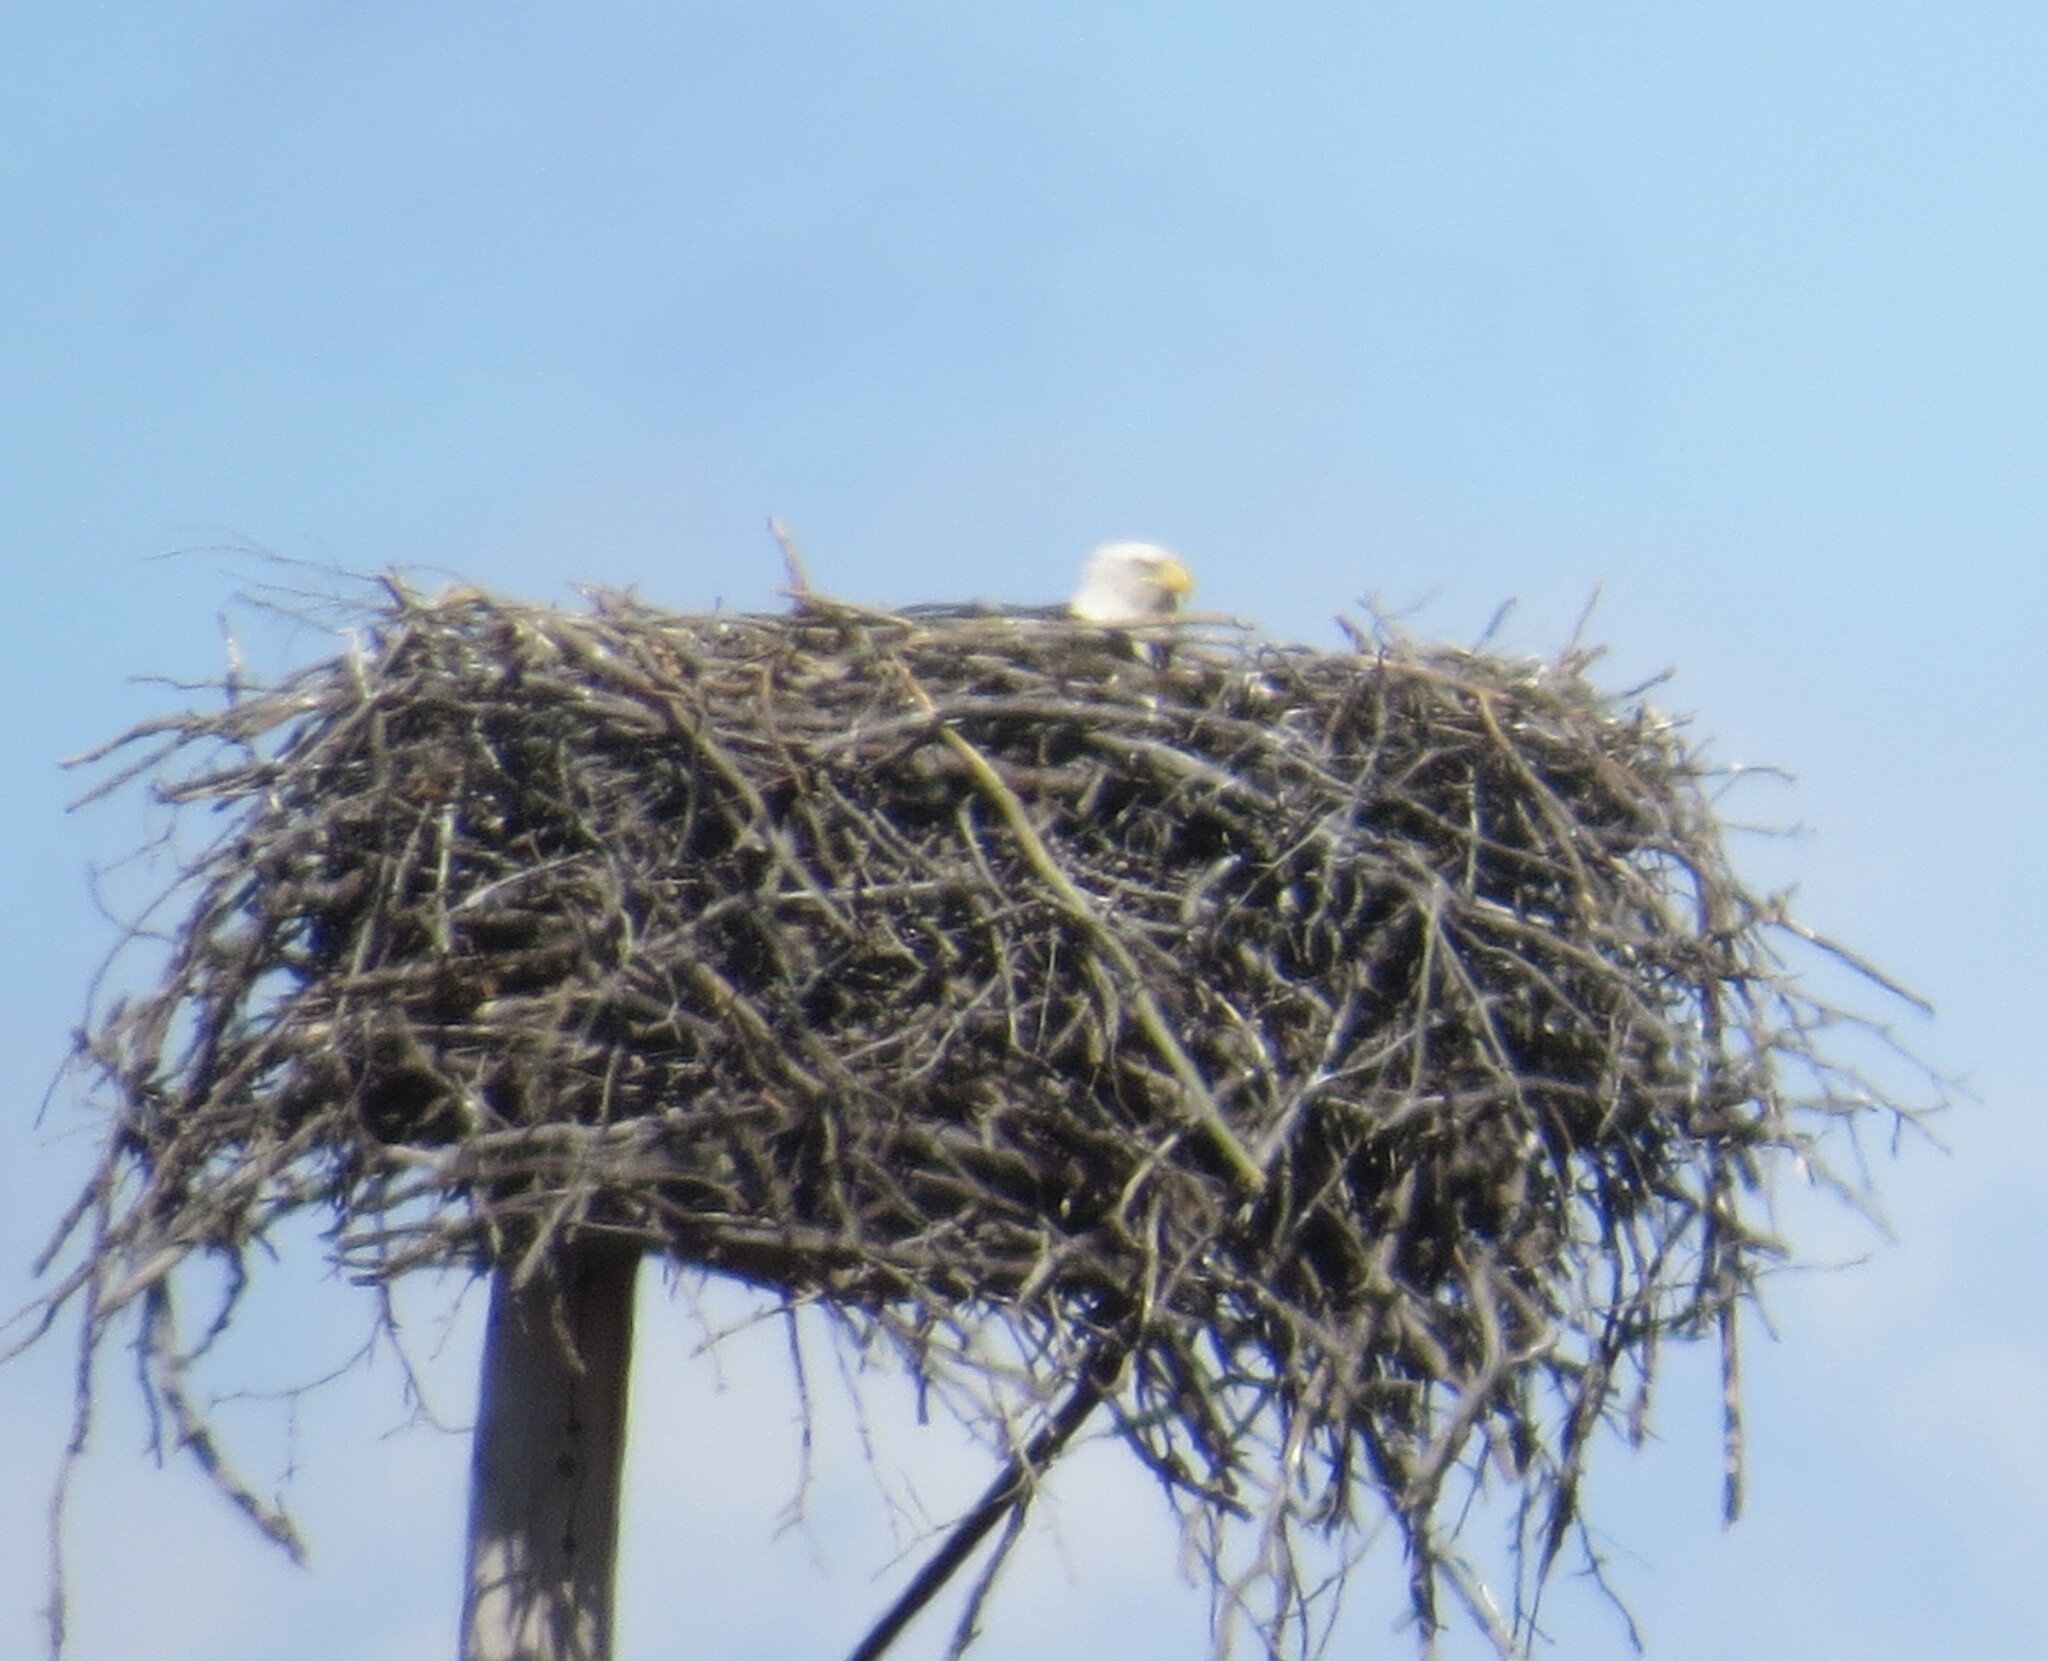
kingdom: Animalia
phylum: Chordata
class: Aves
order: Accipitriformes
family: Accipitridae
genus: Haliaeetus
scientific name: Haliaeetus leucocephalus
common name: Bald eagle
